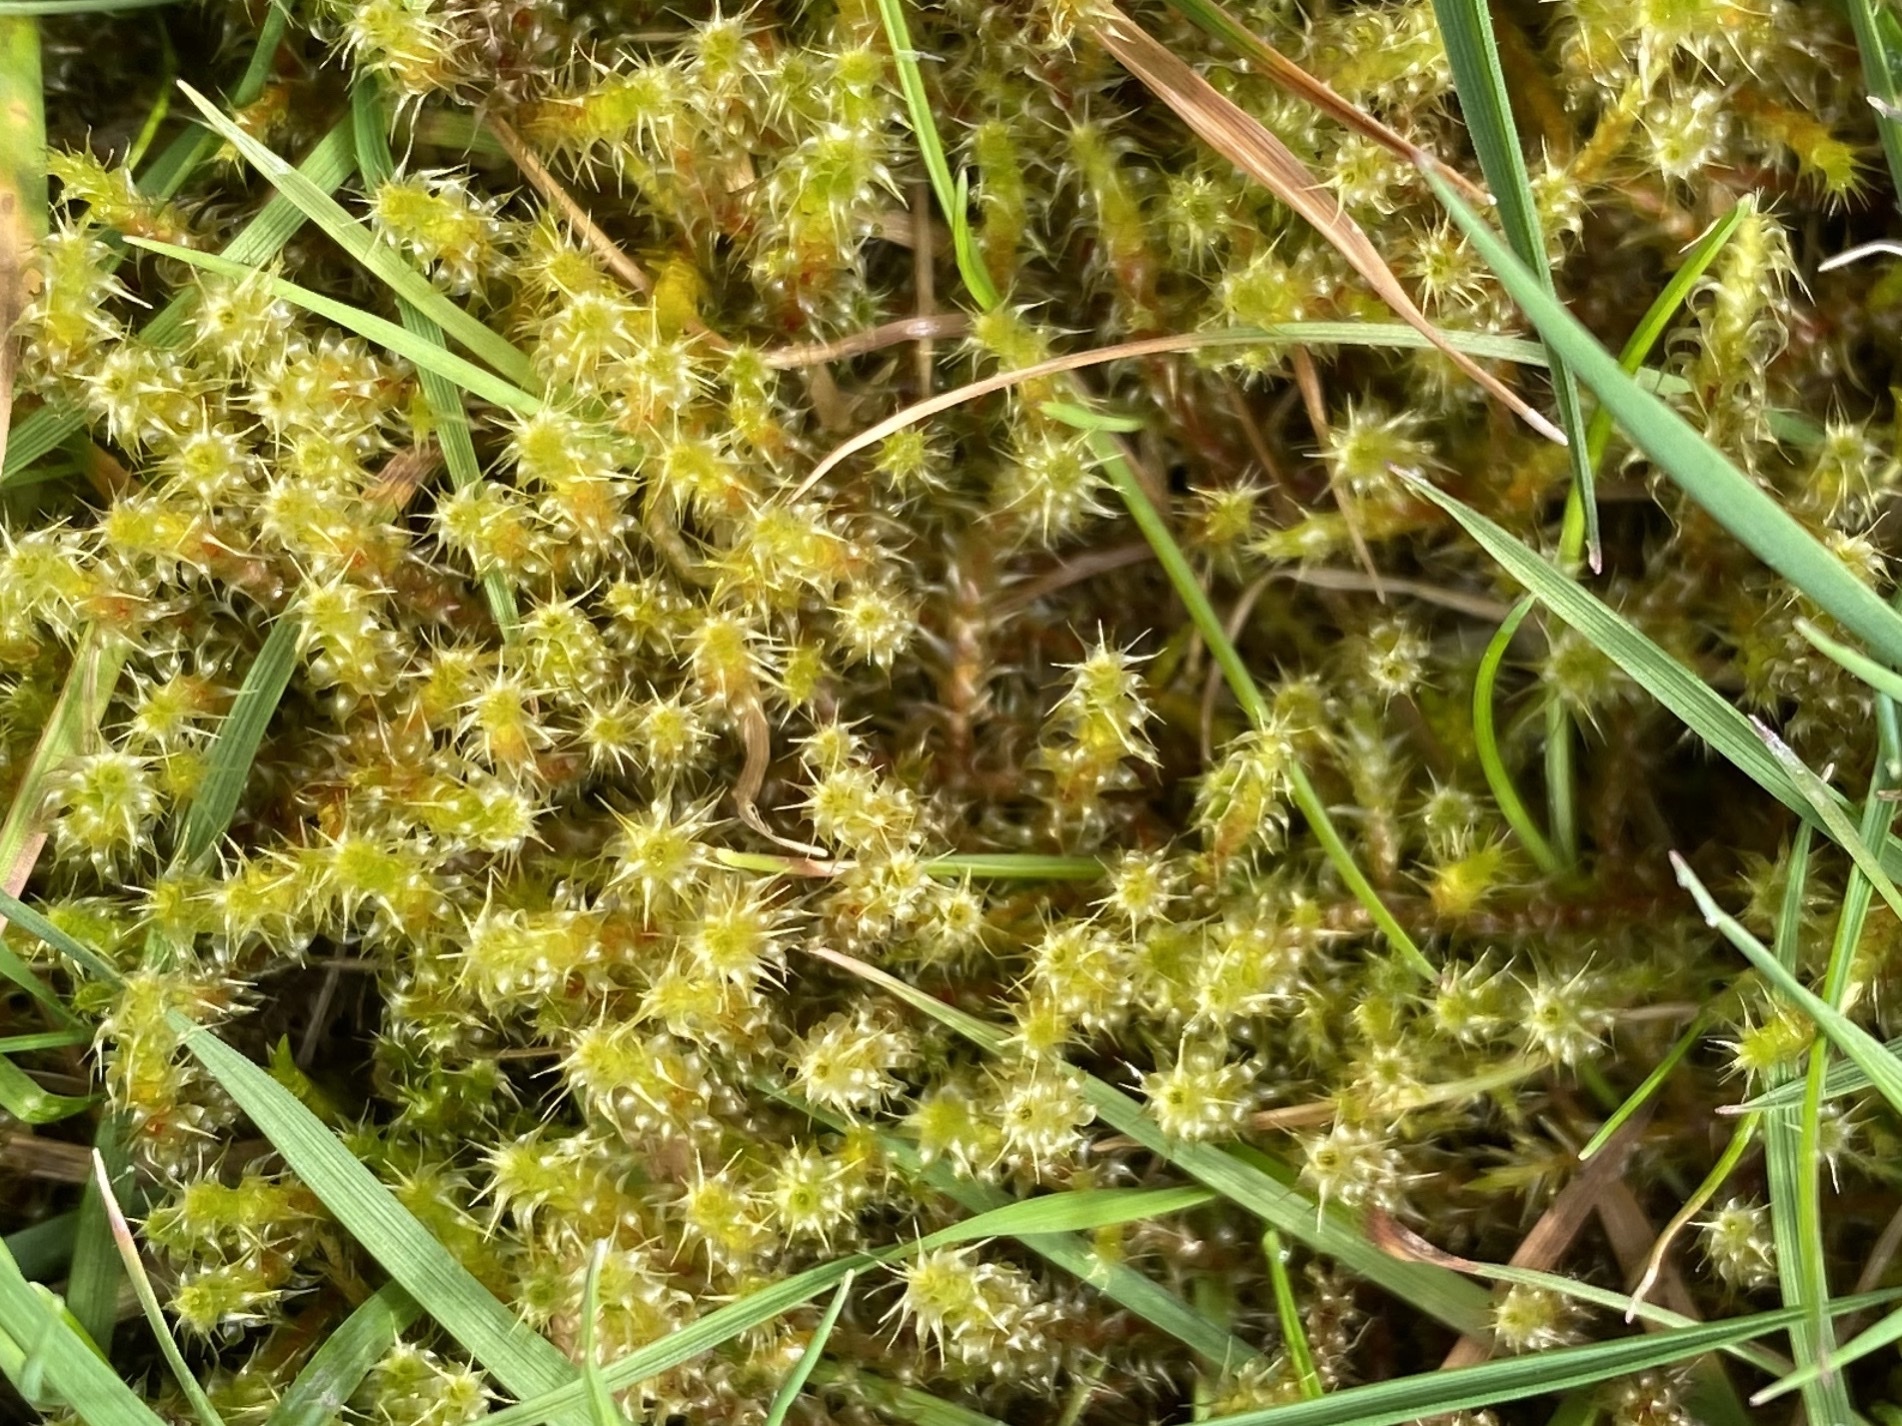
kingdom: Plantae
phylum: Bryophyta
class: Bryopsida
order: Hypnales
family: Hylocomiaceae
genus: Rhytidiadelphus
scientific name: Rhytidiadelphus squarrosus
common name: Springy turf-moss
